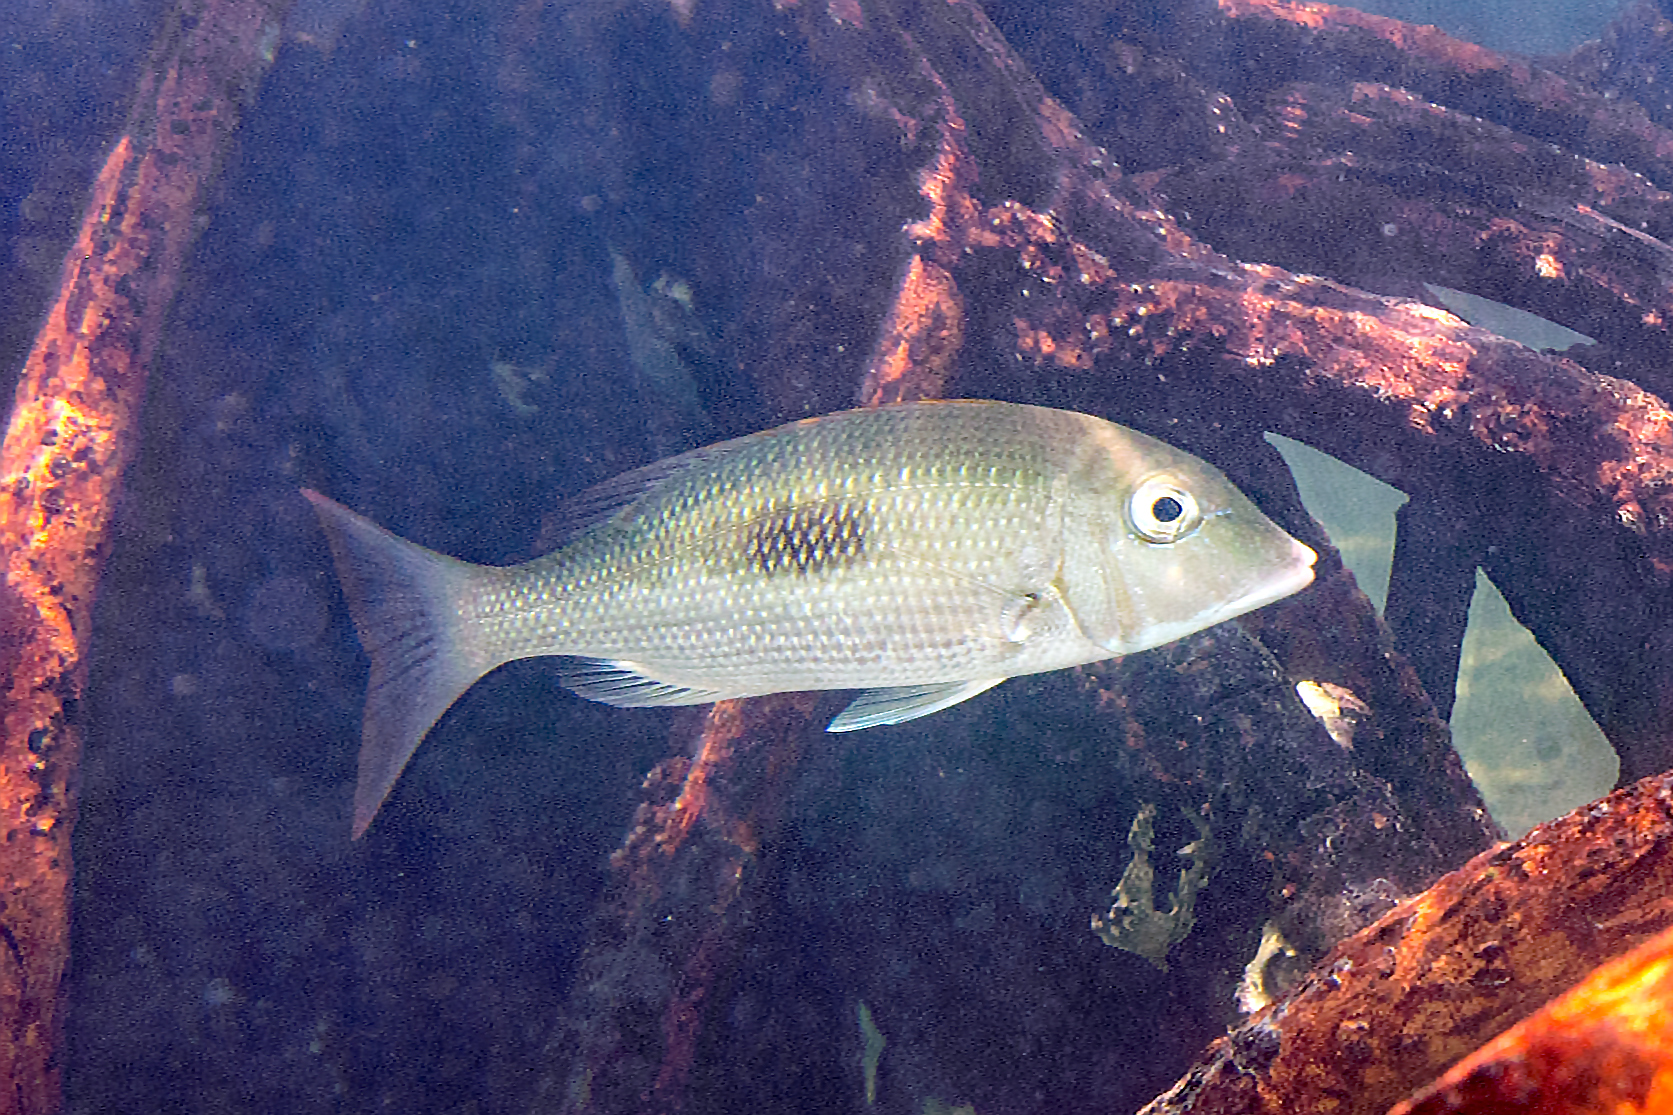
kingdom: Animalia
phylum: Chordata
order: Perciformes
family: Lethrinidae
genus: Lethrinus
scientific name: Lethrinus harak
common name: Blackspot emperor
